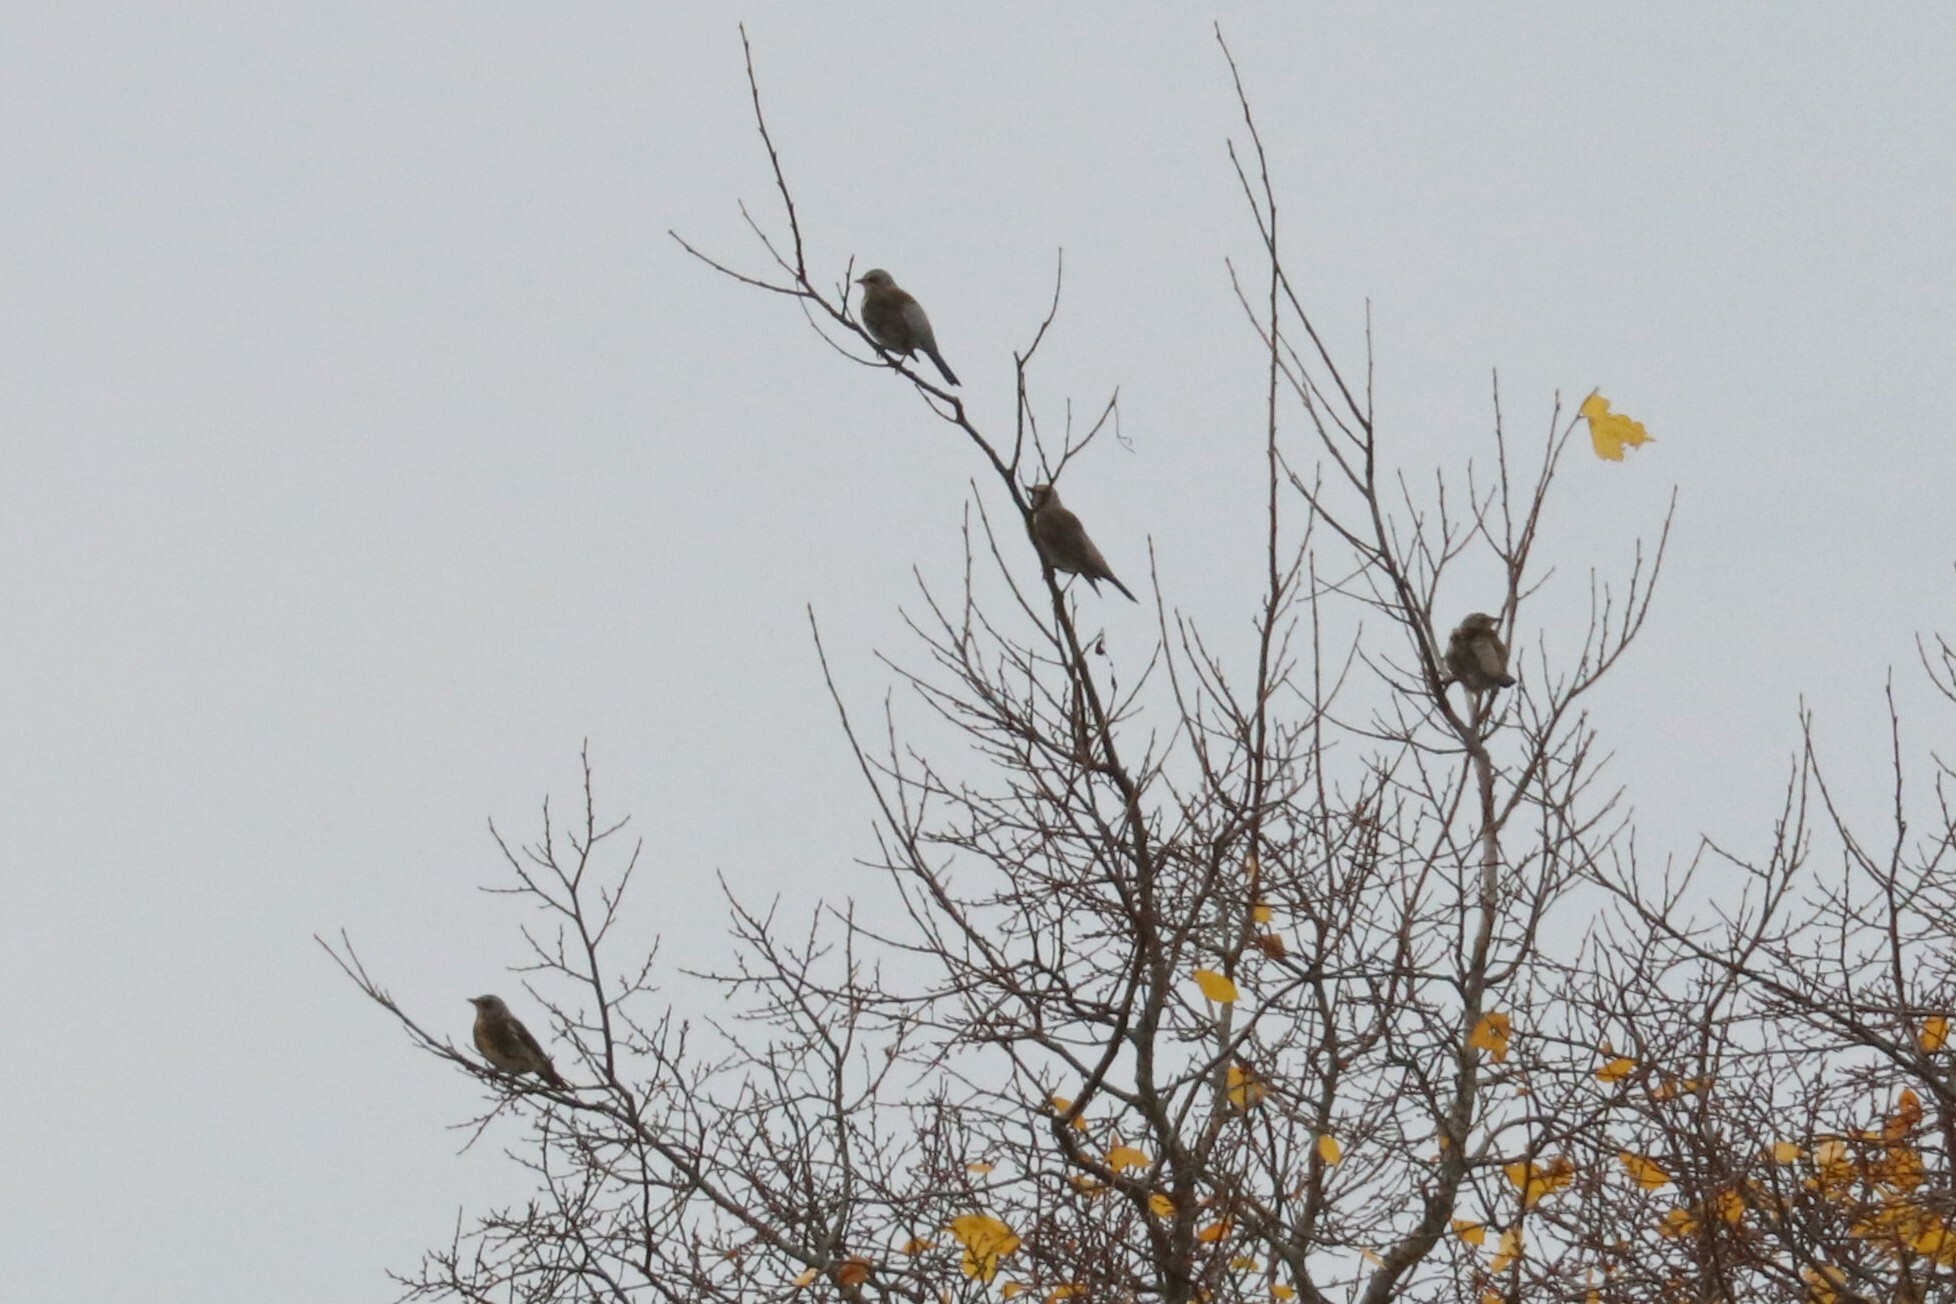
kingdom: Animalia
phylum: Chordata
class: Aves
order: Passeriformes
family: Turdidae
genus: Turdus
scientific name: Turdus pilaris
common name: Fieldfare
